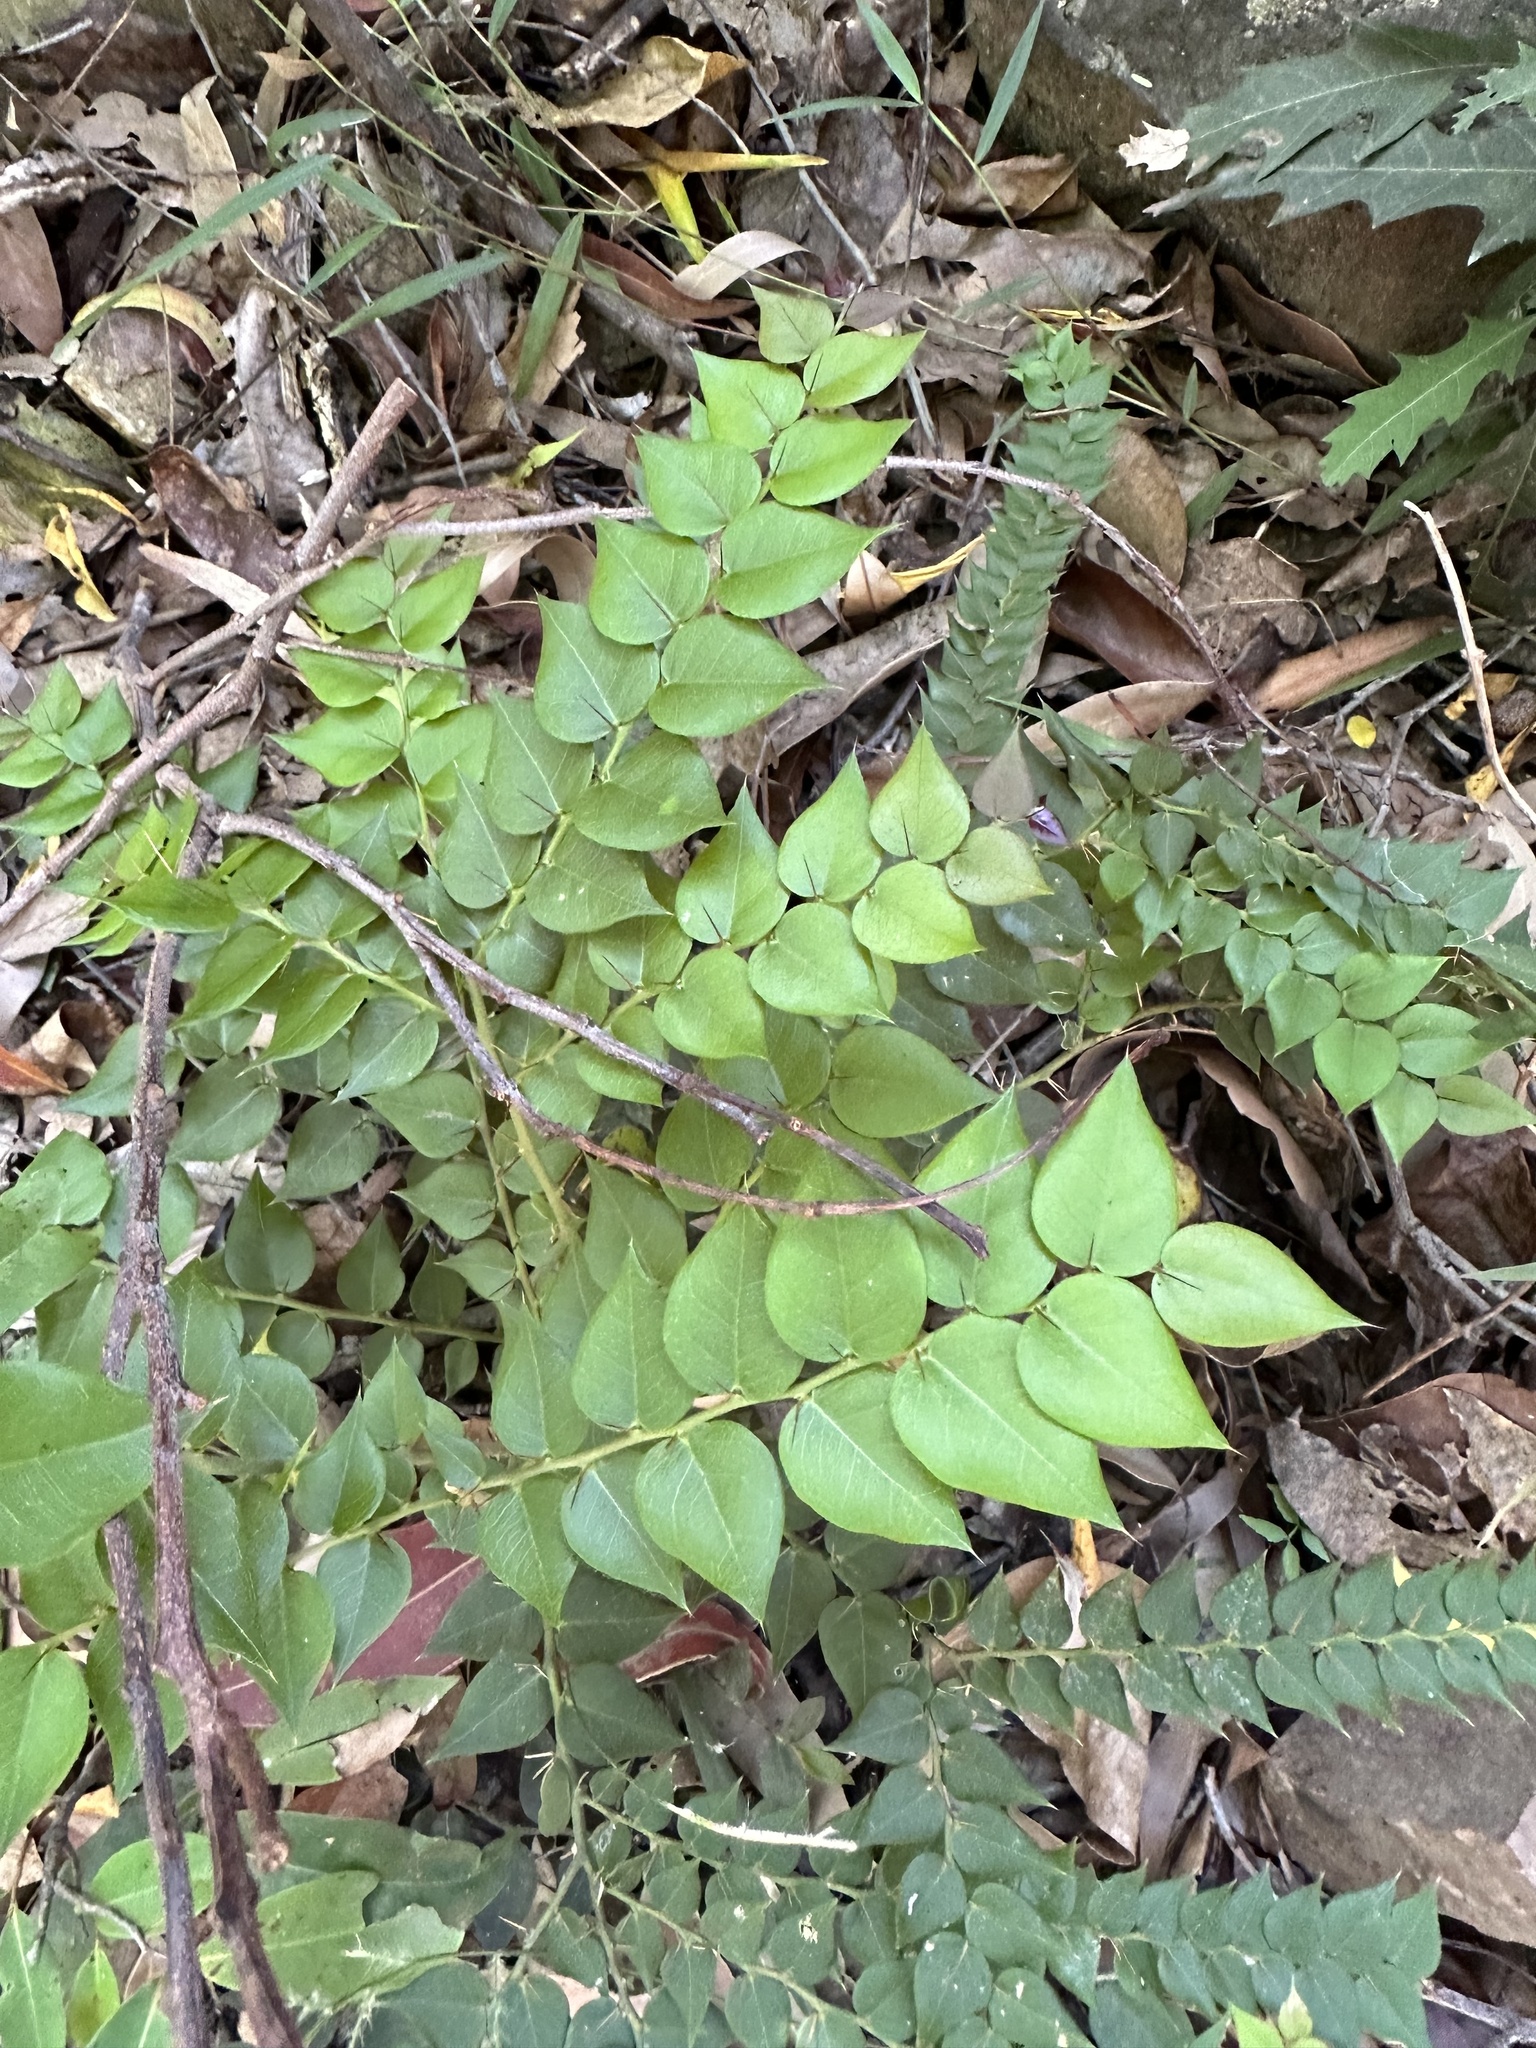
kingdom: Plantae
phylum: Tracheophyta
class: Magnoliopsida
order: Brassicales
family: Capparaceae
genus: Capparis
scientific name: Capparis arborea
